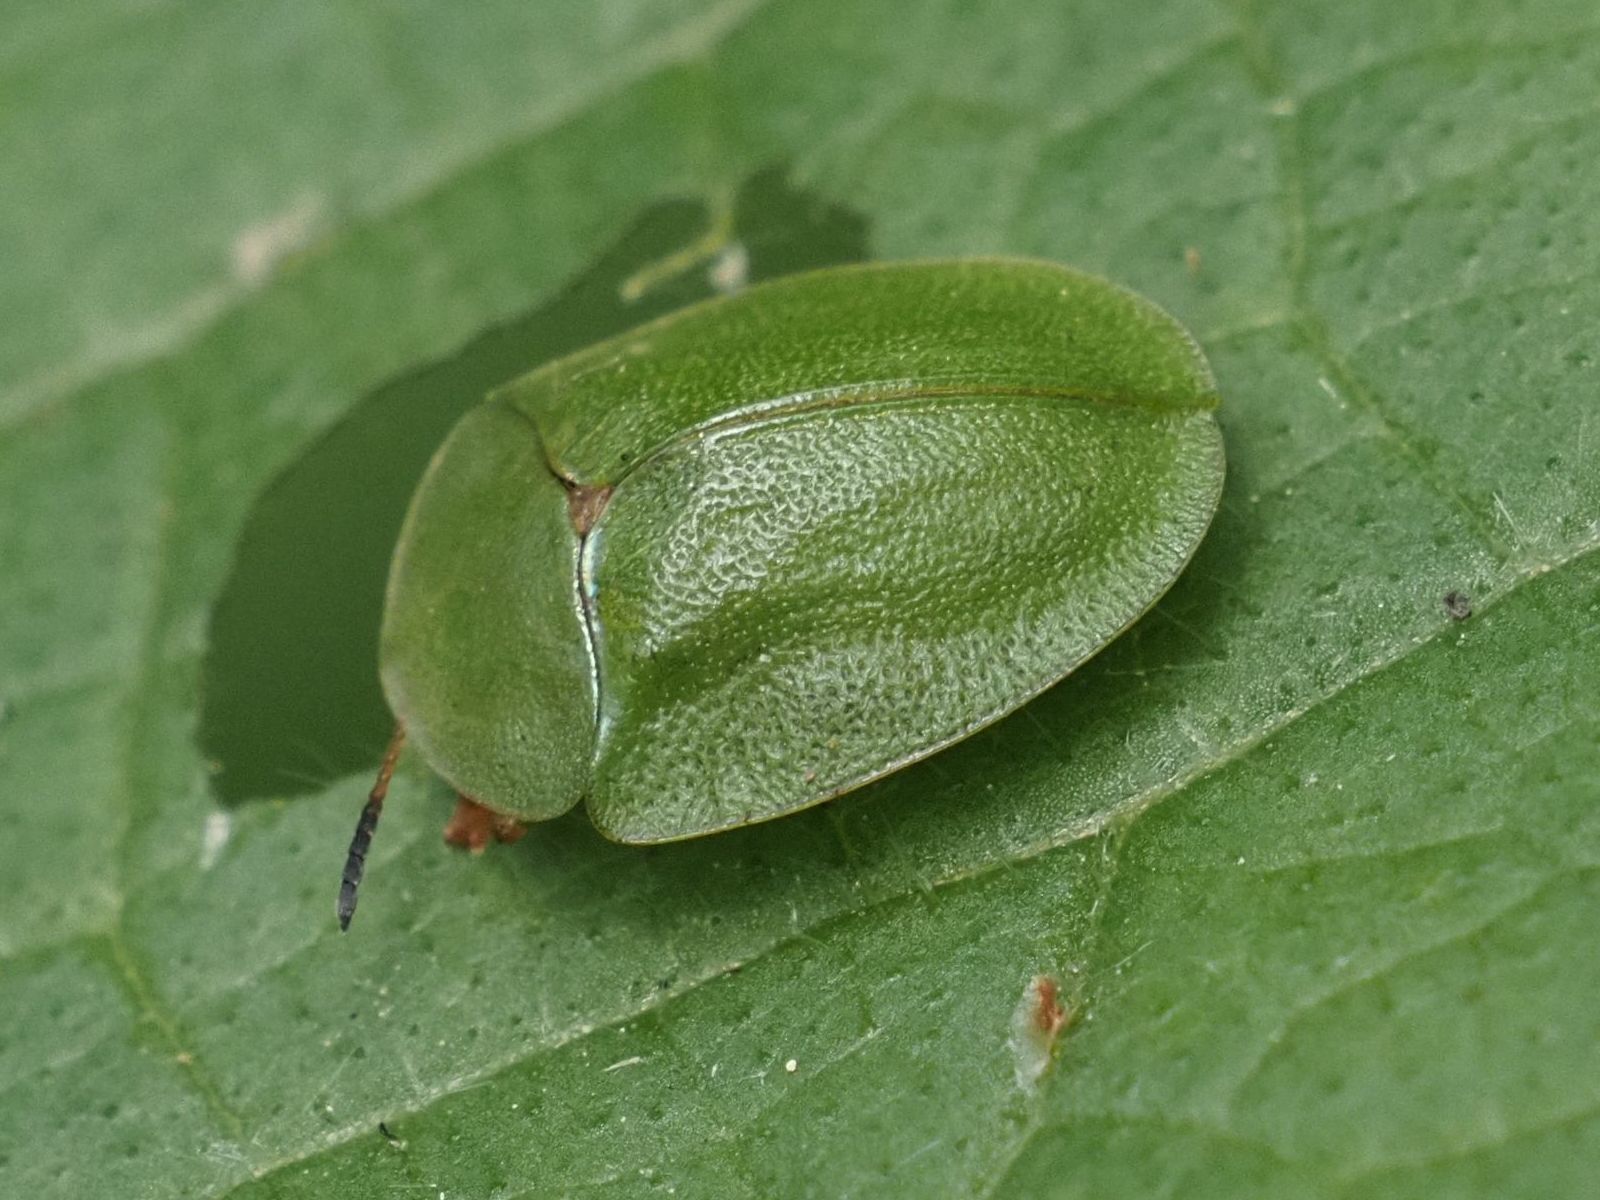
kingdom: Animalia
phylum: Arthropoda
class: Insecta
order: Coleoptera
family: Chrysomelidae
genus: Cassida
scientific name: Cassida viridis
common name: Green tortoise beetle
